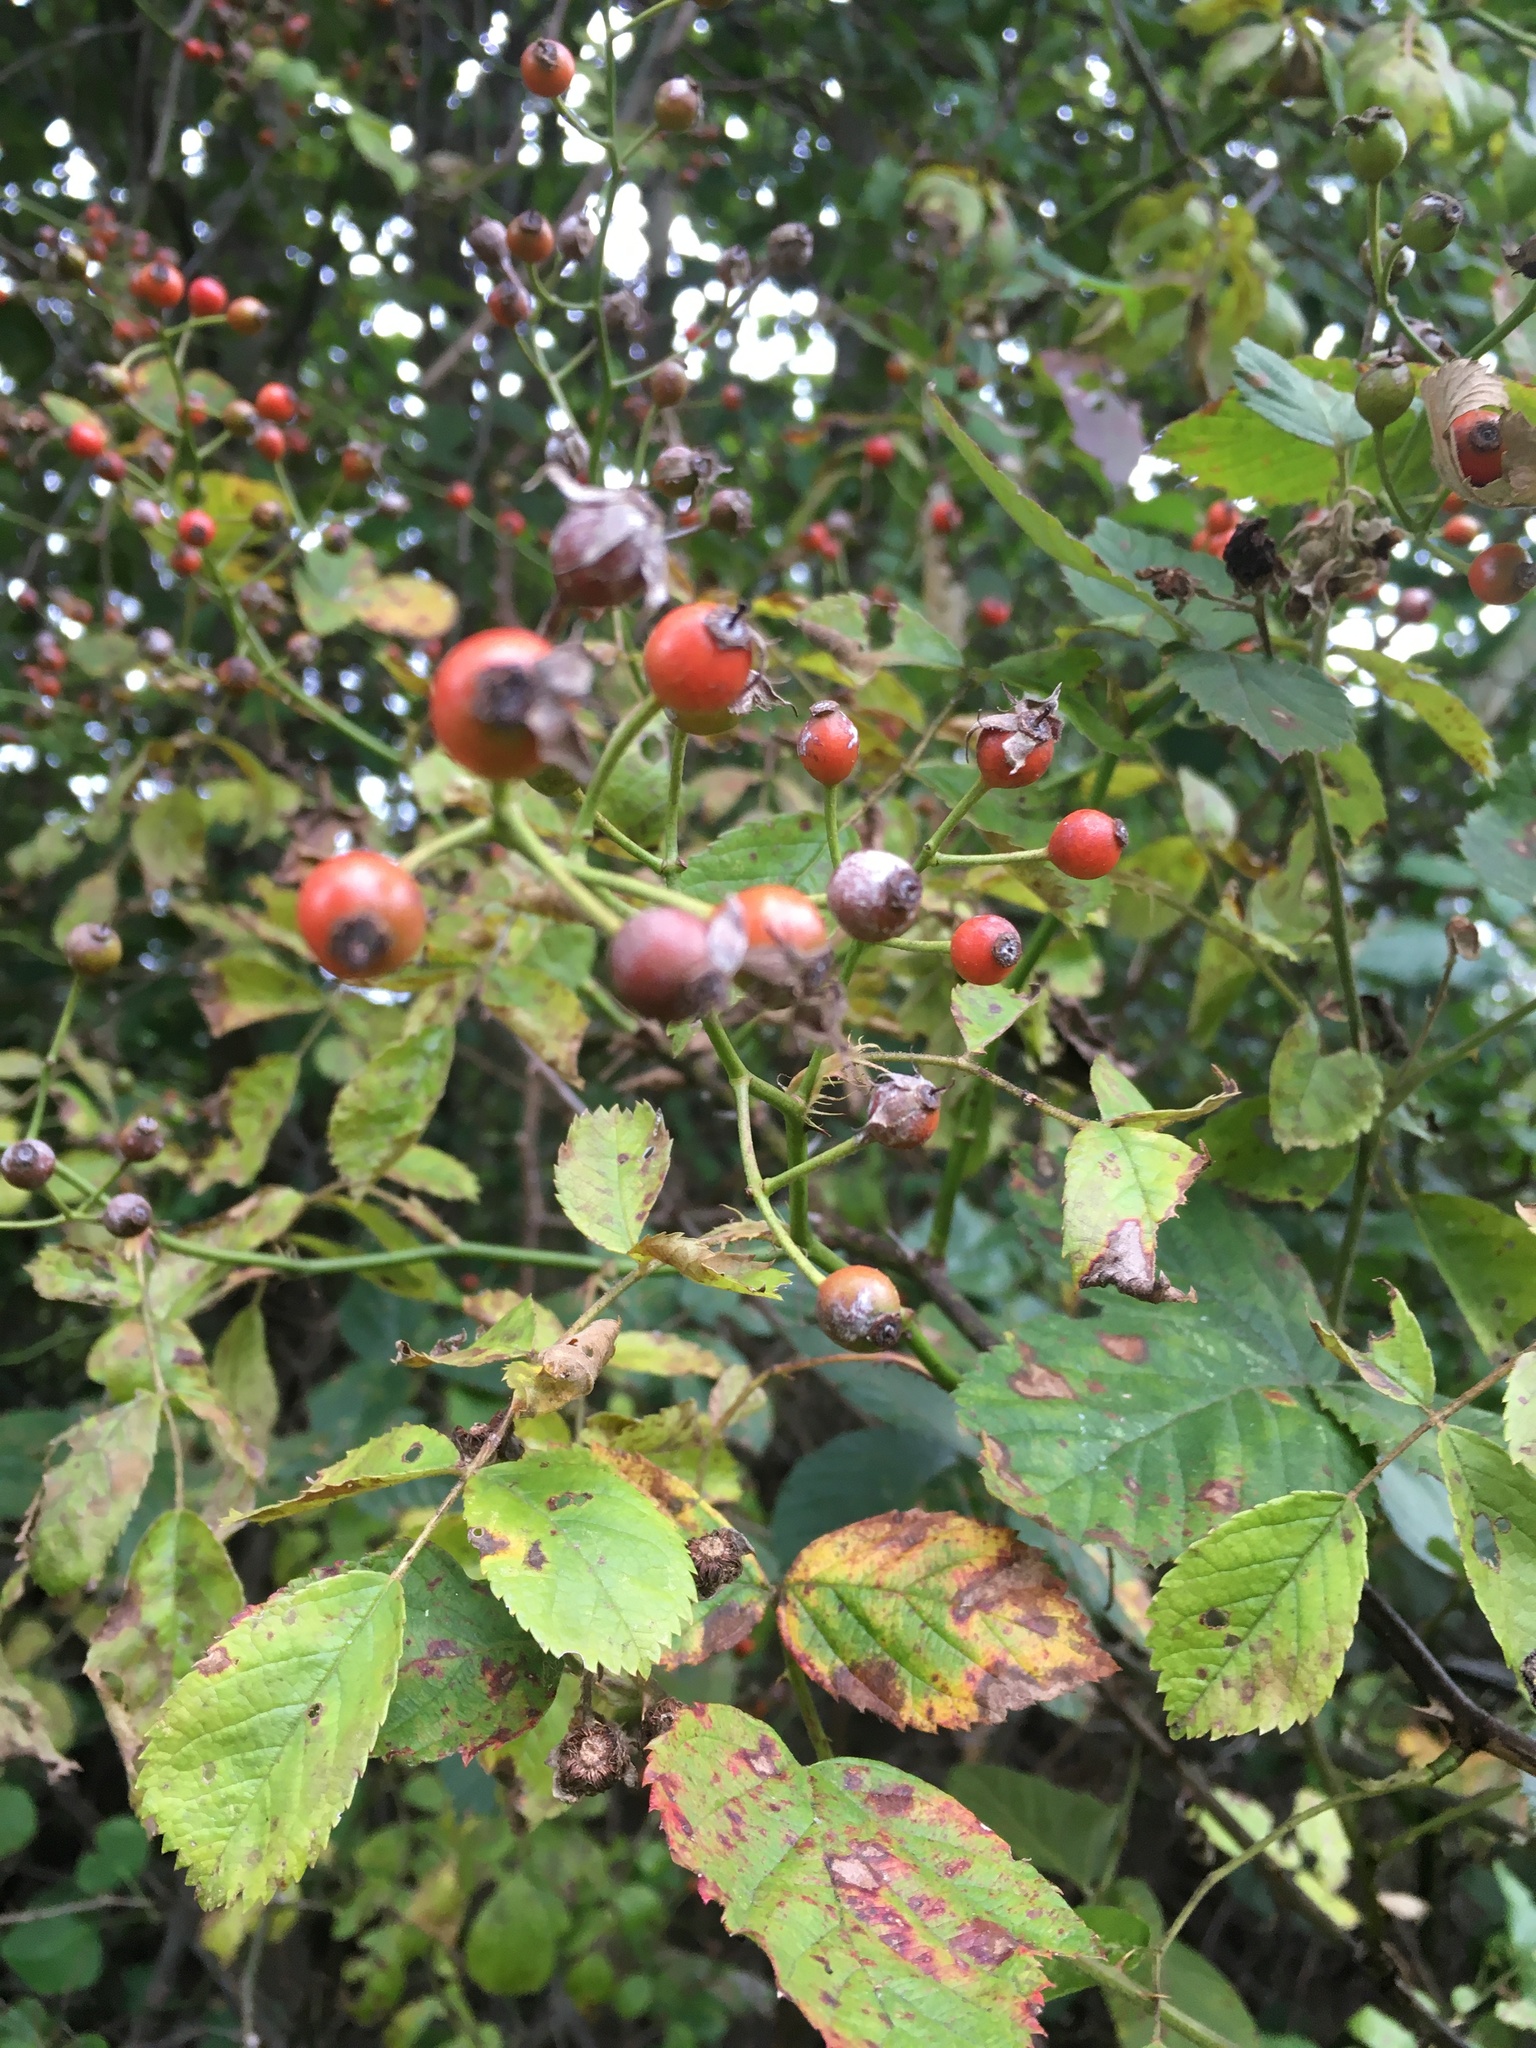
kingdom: Plantae
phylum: Tracheophyta
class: Magnoliopsida
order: Rosales
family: Rosaceae
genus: Rosa
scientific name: Rosa multiflora
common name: Multiflora rose
